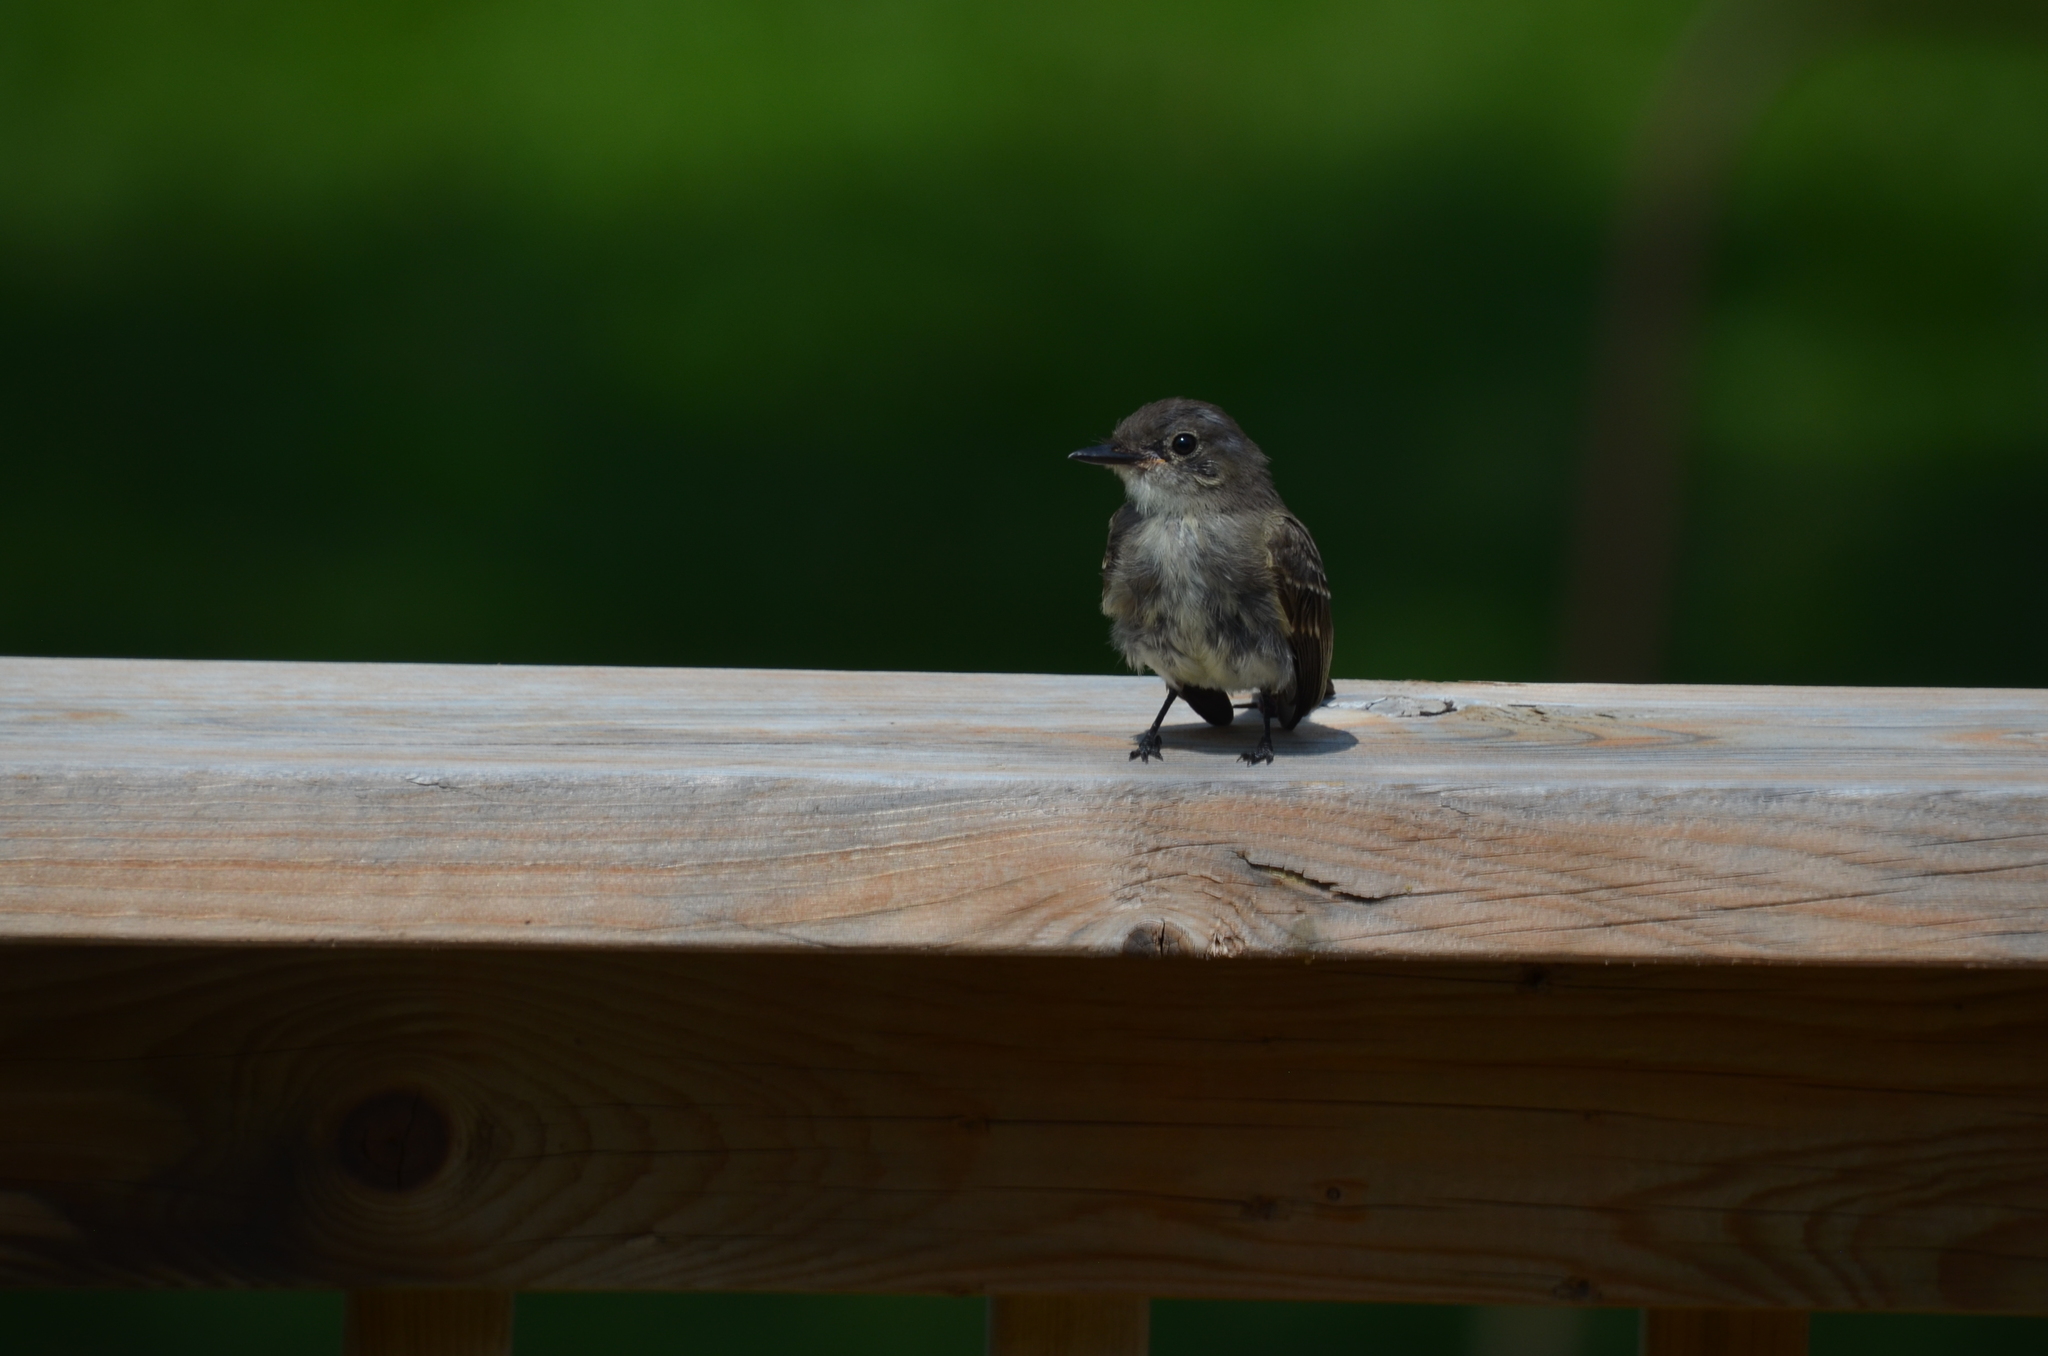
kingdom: Animalia
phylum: Chordata
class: Aves
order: Passeriformes
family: Tyrannidae
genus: Contopus
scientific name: Contopus virens
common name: Eastern wood-pewee
